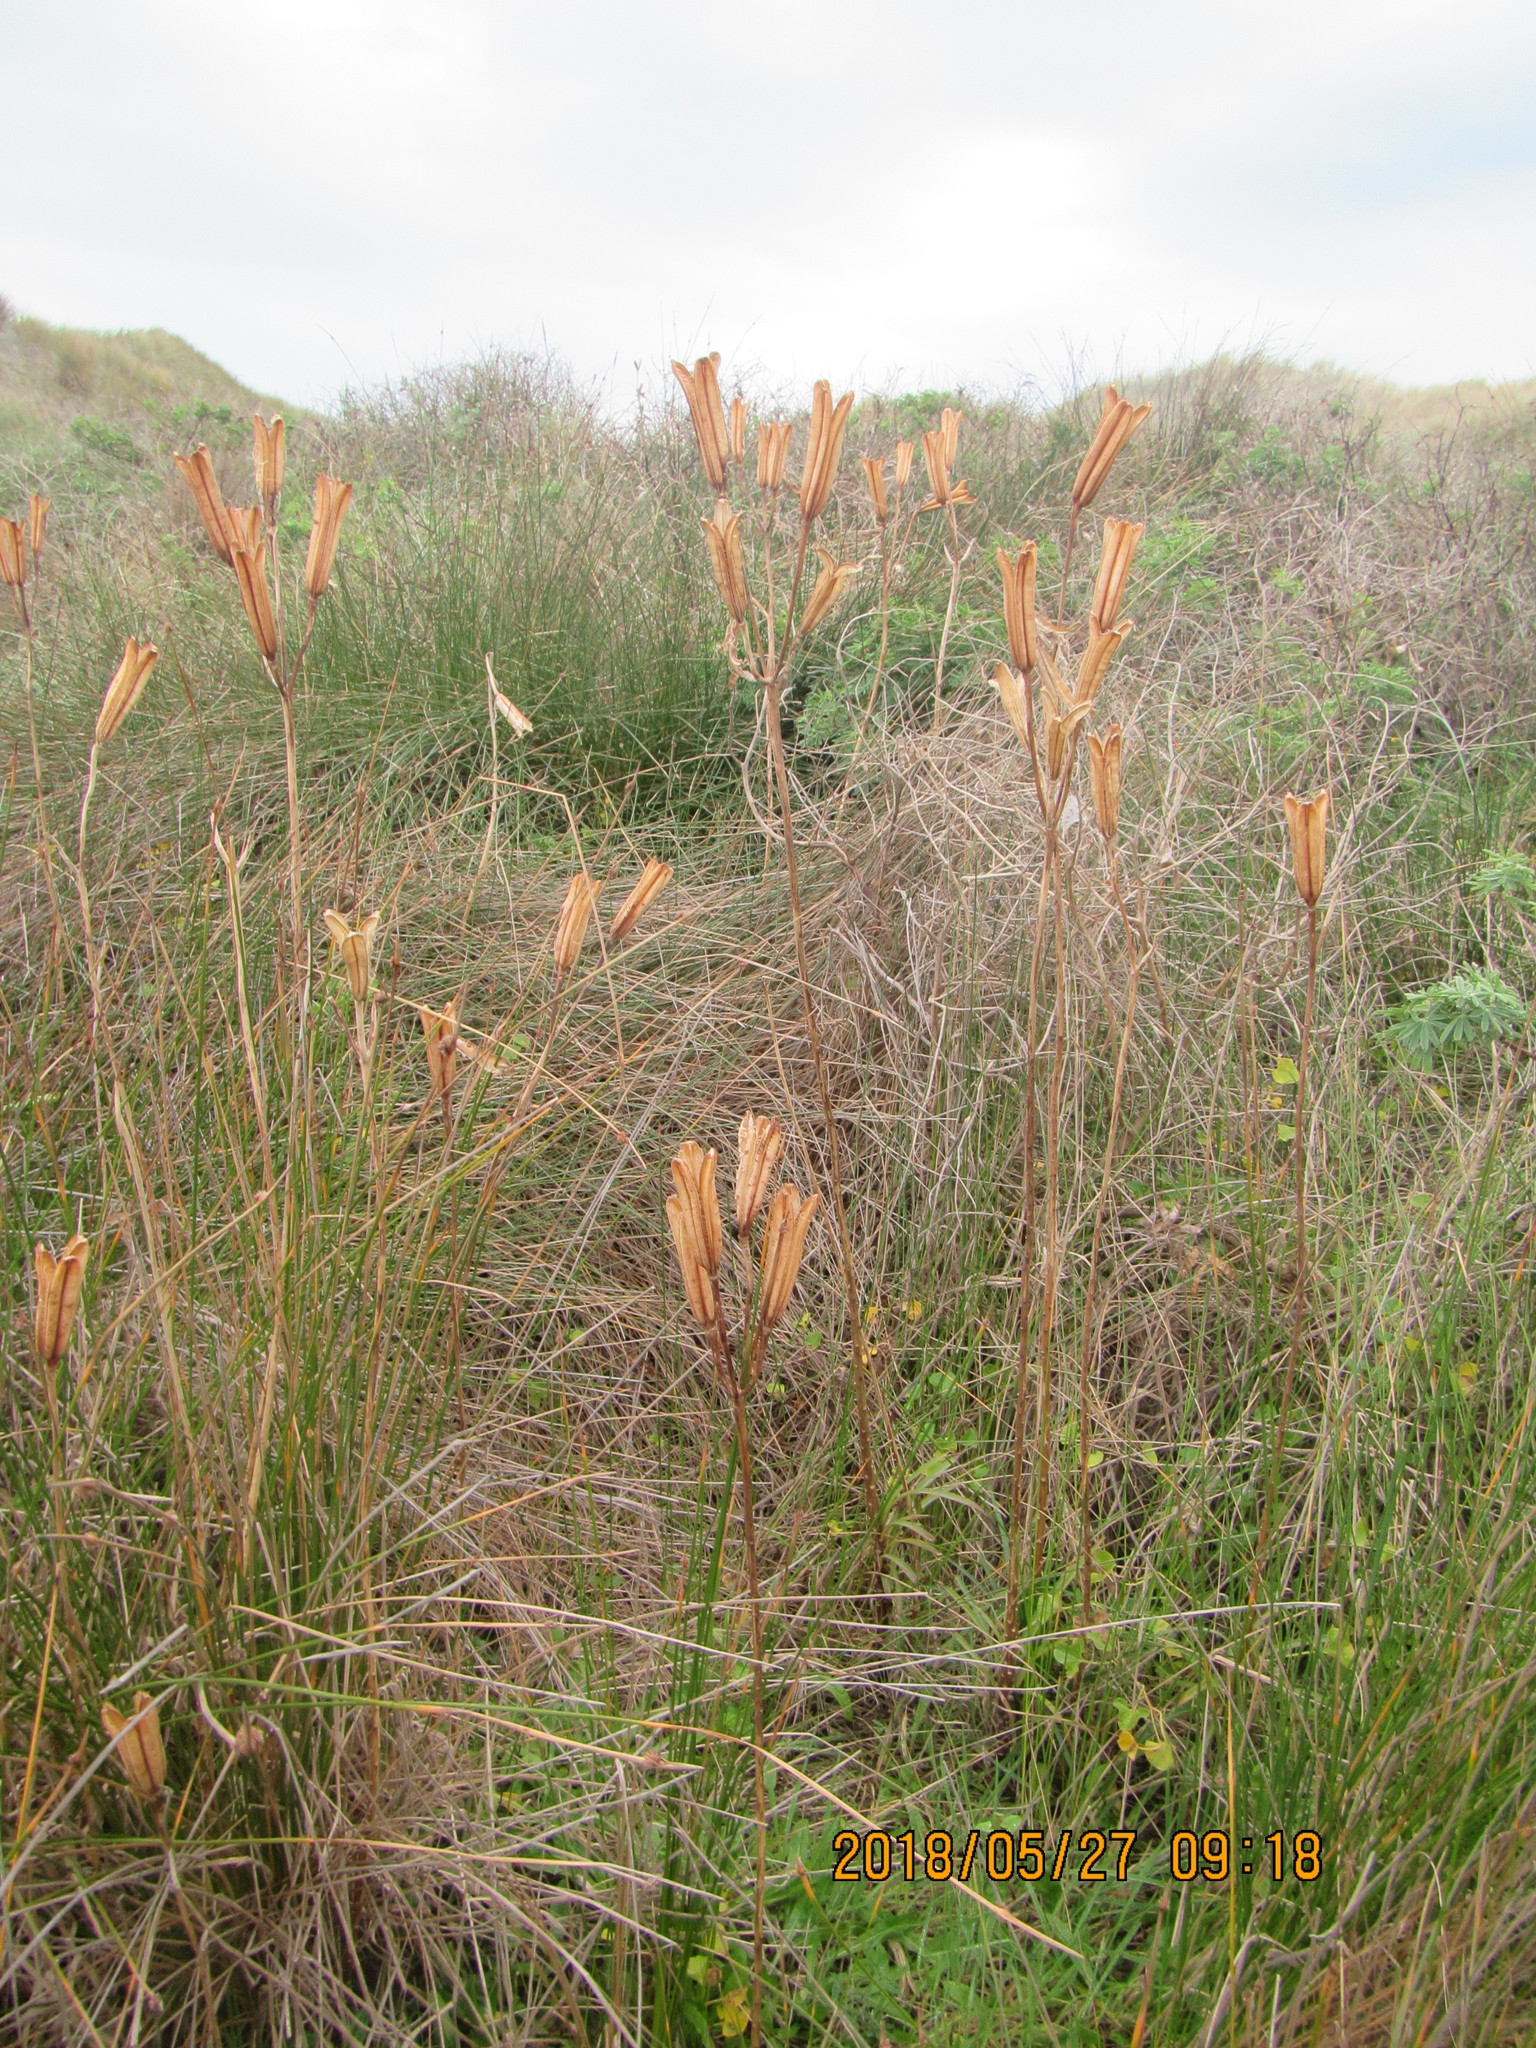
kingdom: Plantae
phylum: Tracheophyta
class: Liliopsida
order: Liliales
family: Liliaceae
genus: Lilium
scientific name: Lilium formosanum
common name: Formosa lily
